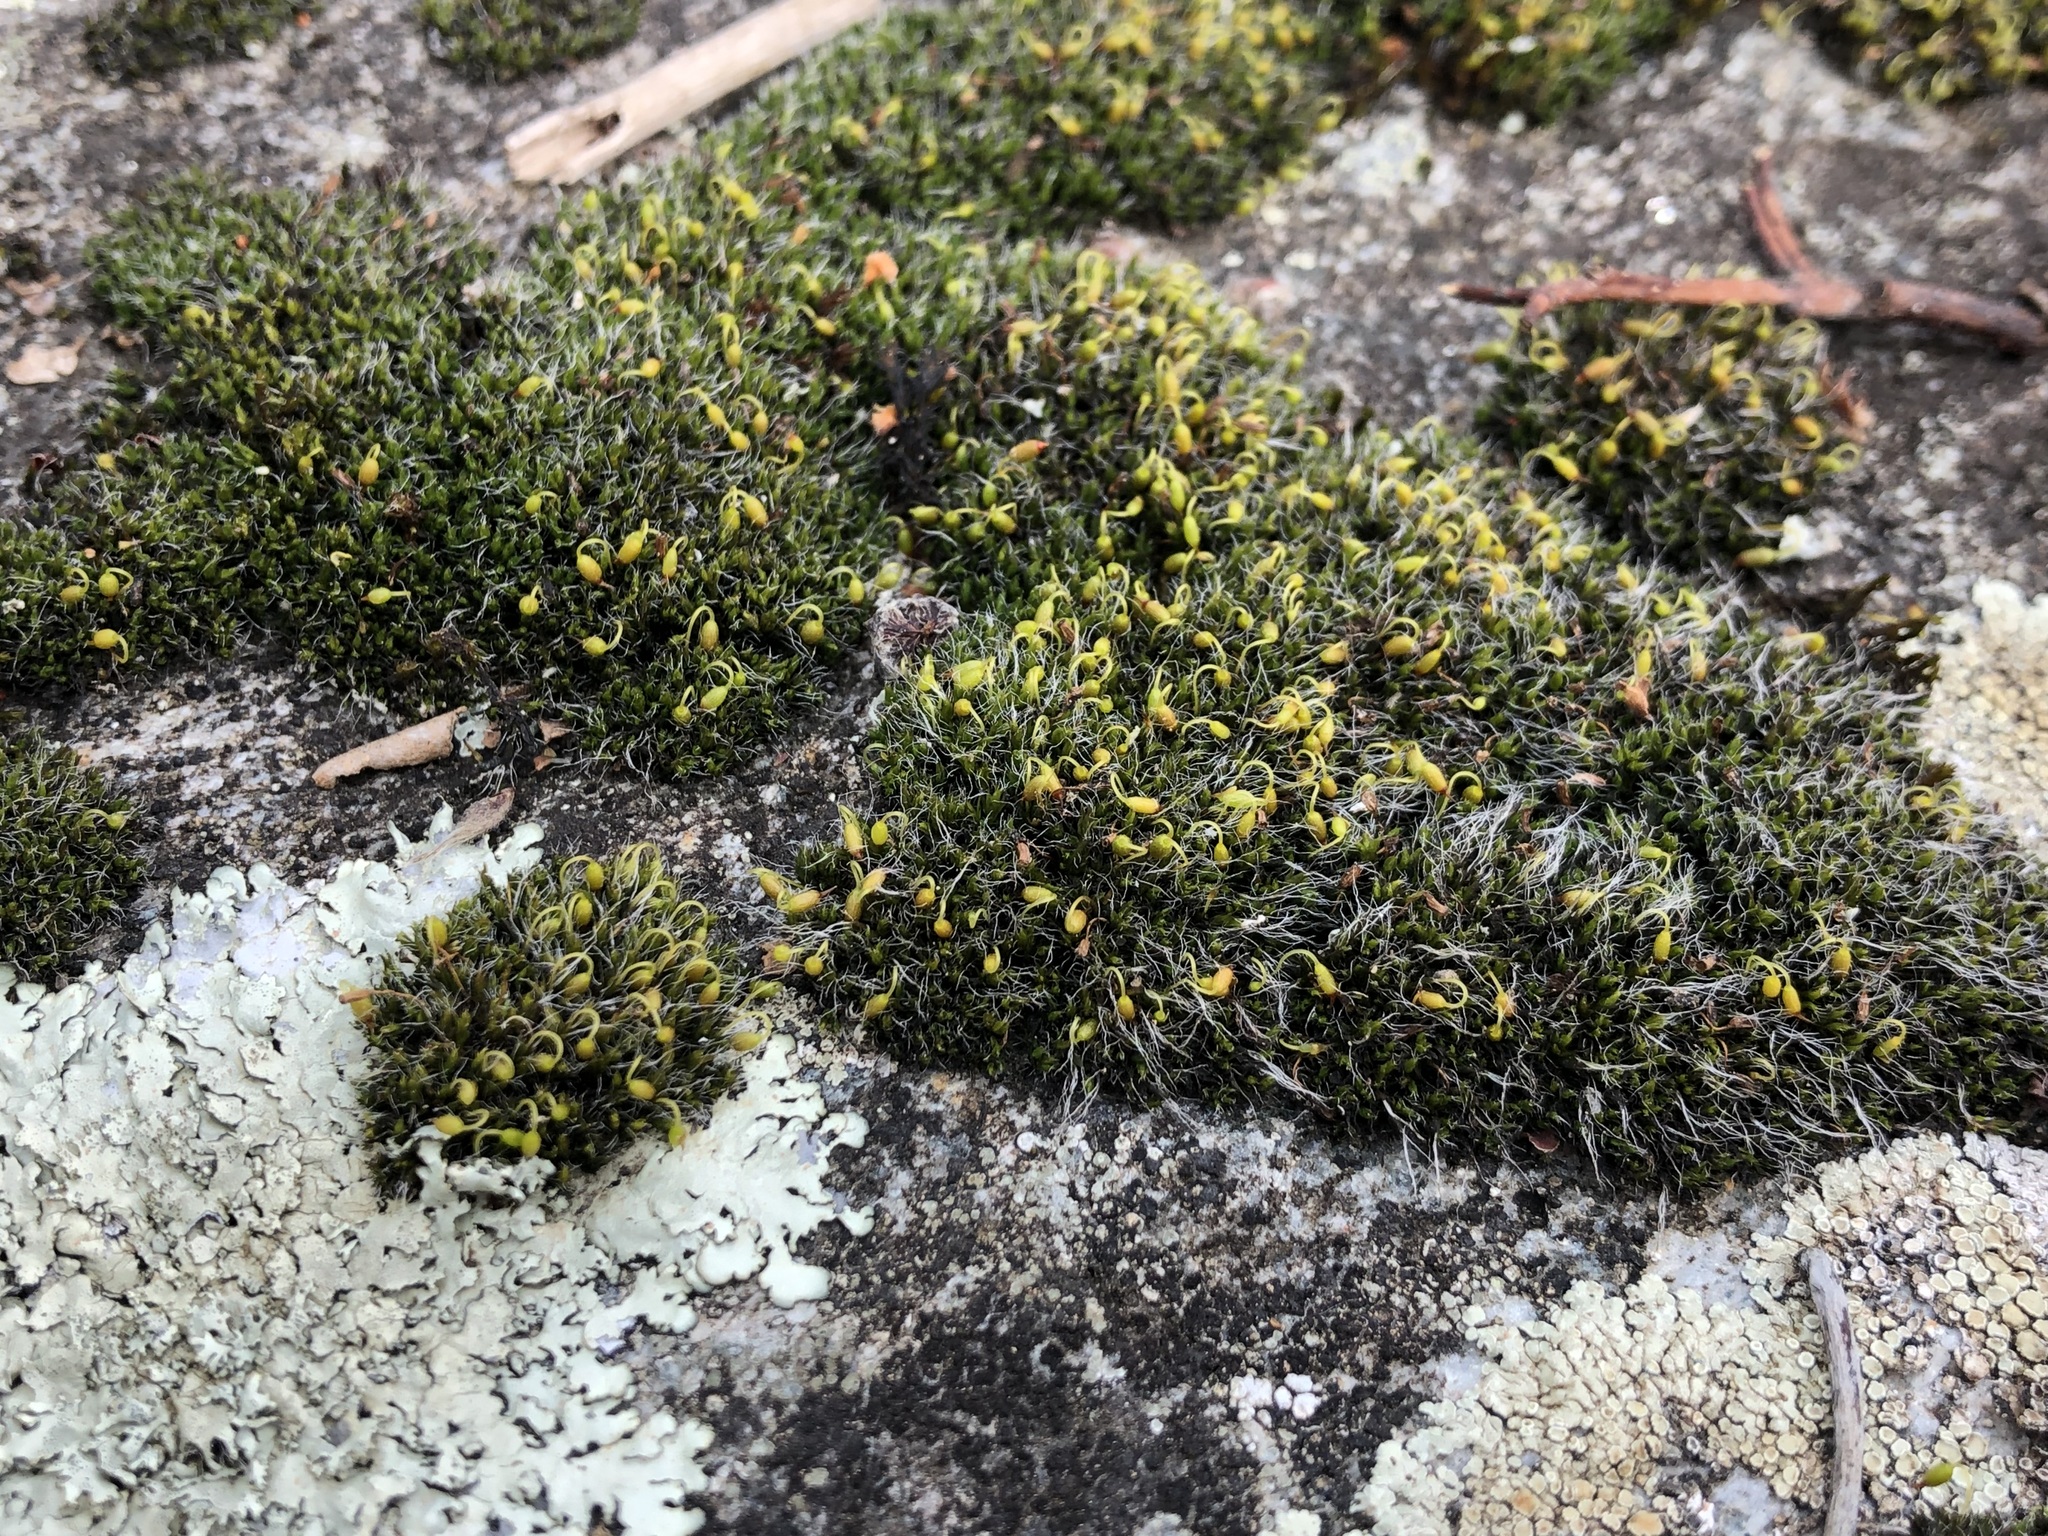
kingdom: Plantae
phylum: Bryophyta
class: Bryopsida
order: Grimmiales
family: Grimmiaceae
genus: Grimmia
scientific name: Grimmia pulvinata
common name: Grey-cushioned grimmia
